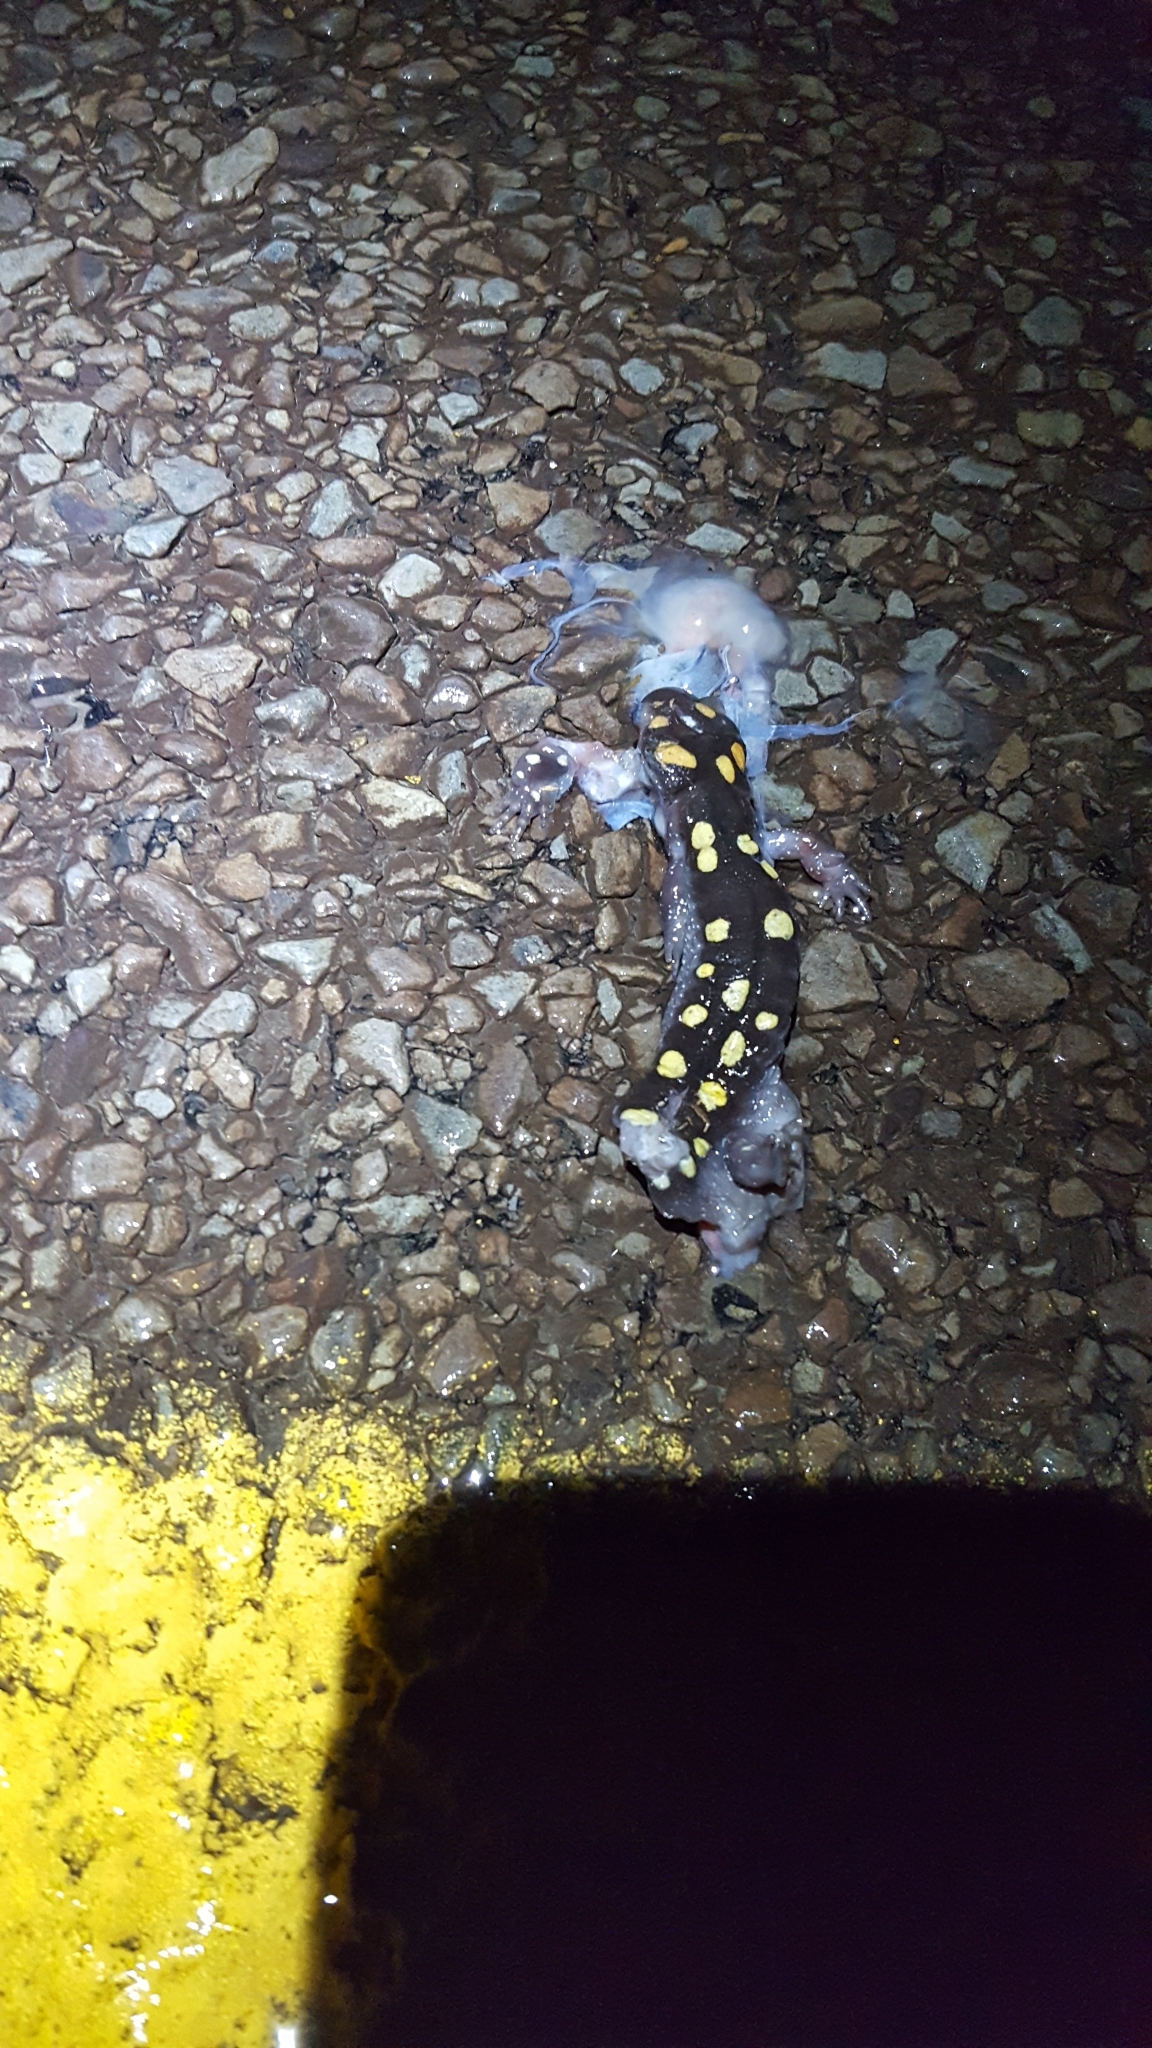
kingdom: Animalia
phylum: Chordata
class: Amphibia
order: Caudata
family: Ambystomatidae
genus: Ambystoma
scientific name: Ambystoma maculatum
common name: Spotted salamander
